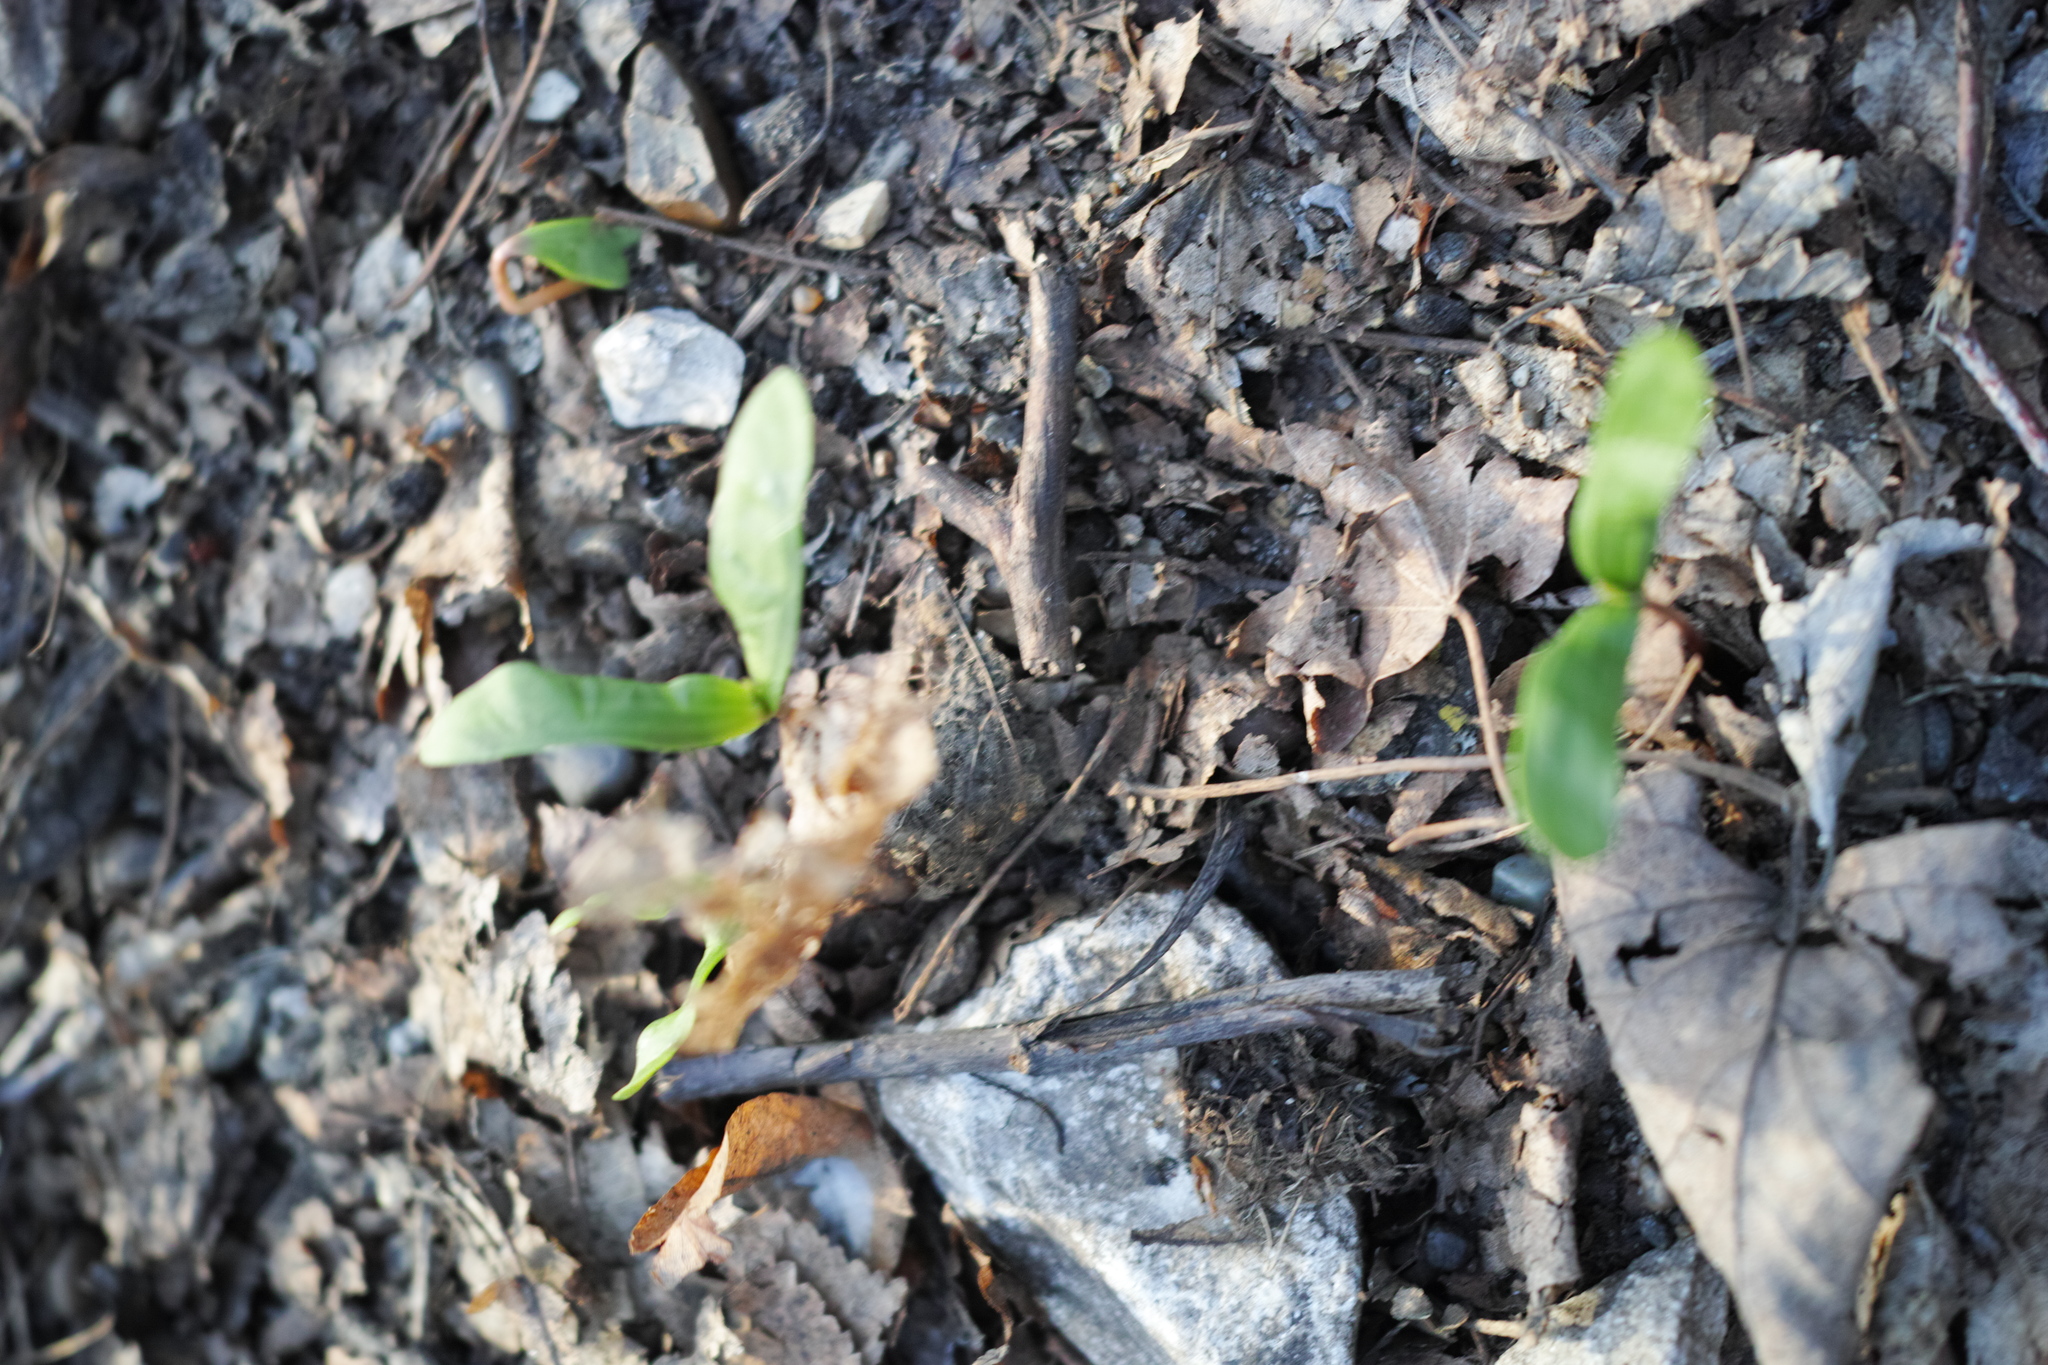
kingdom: Plantae
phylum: Tracheophyta
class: Magnoliopsida
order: Sapindales
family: Sapindaceae
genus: Acer
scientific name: Acer platanoides
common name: Norway maple
